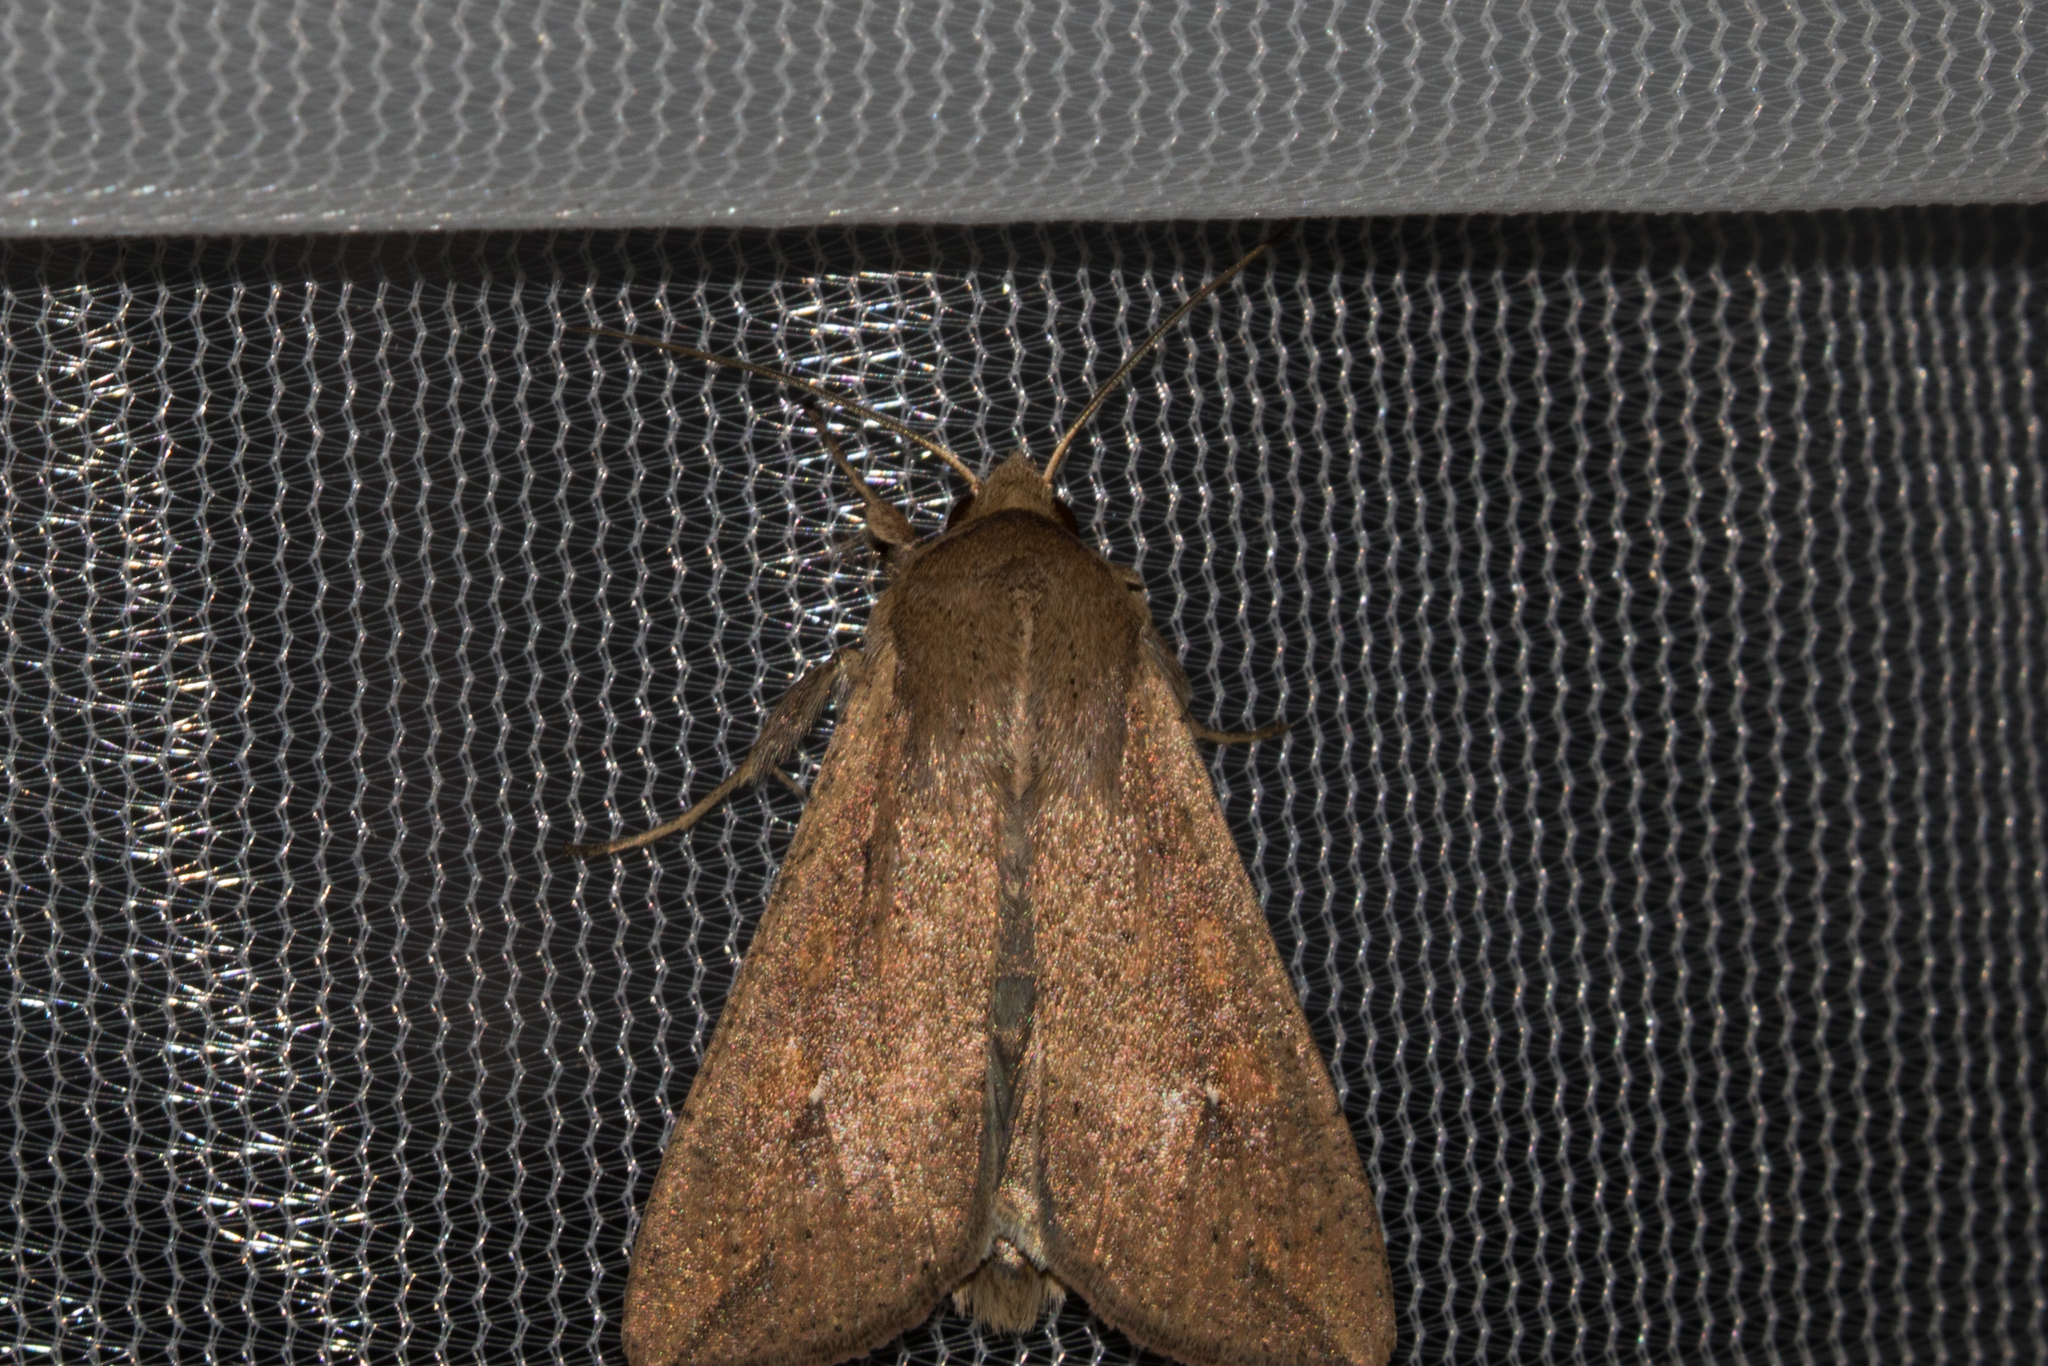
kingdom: Animalia
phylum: Arthropoda
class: Insecta
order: Lepidoptera
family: Noctuidae
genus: Mythimna
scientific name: Mythimna unipuncta
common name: White-speck
